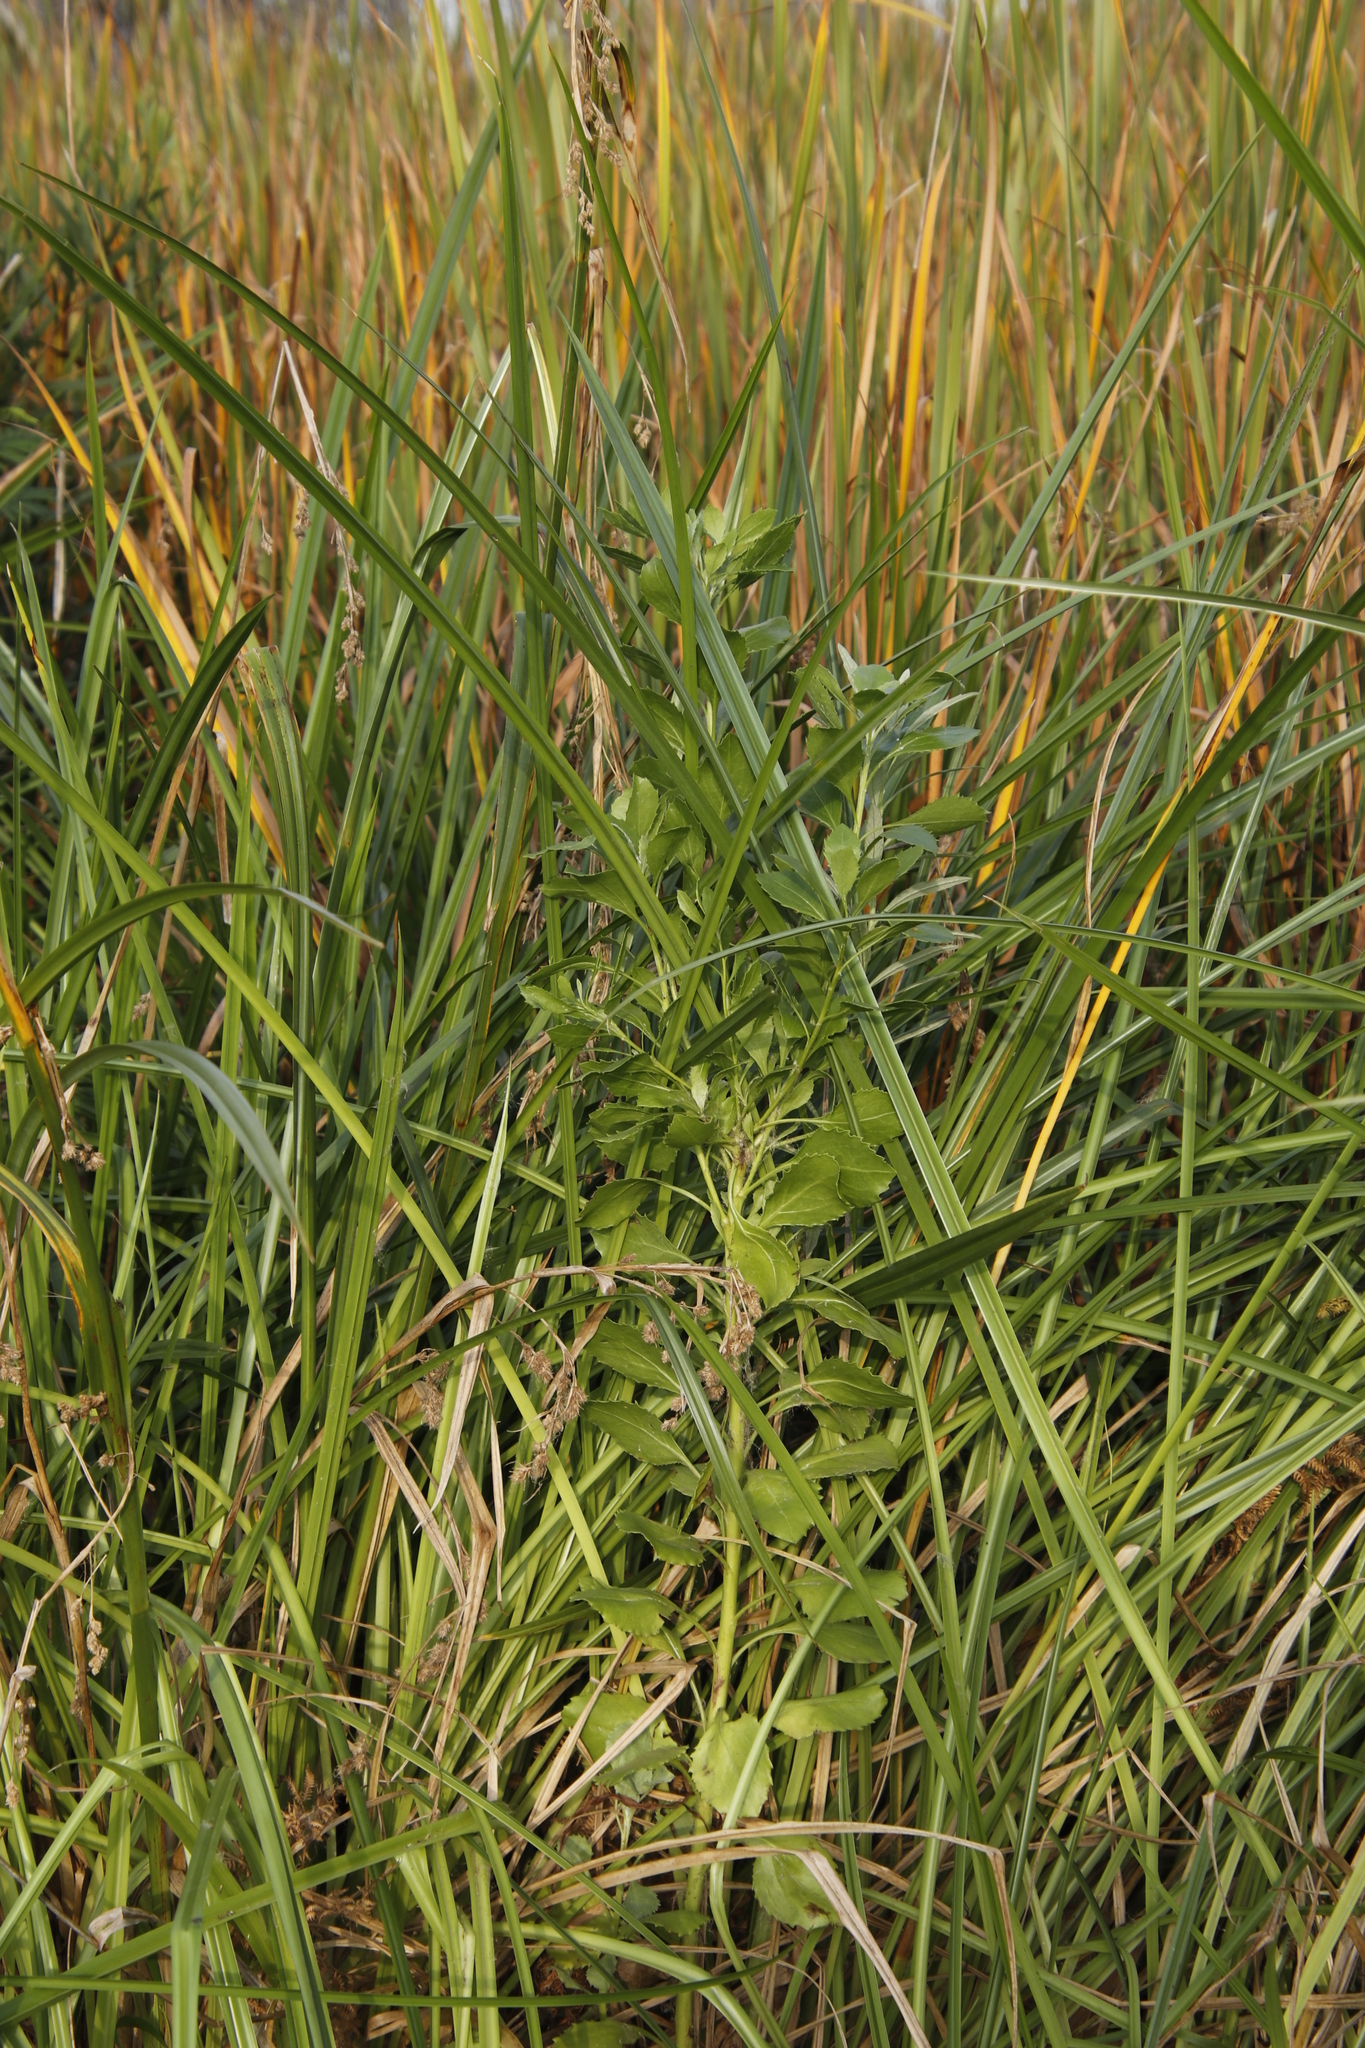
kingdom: Plantae
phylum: Tracheophyta
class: Magnoliopsida
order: Asterales
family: Asteraceae
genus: Osteospermum
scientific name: Osteospermum moniliferum
